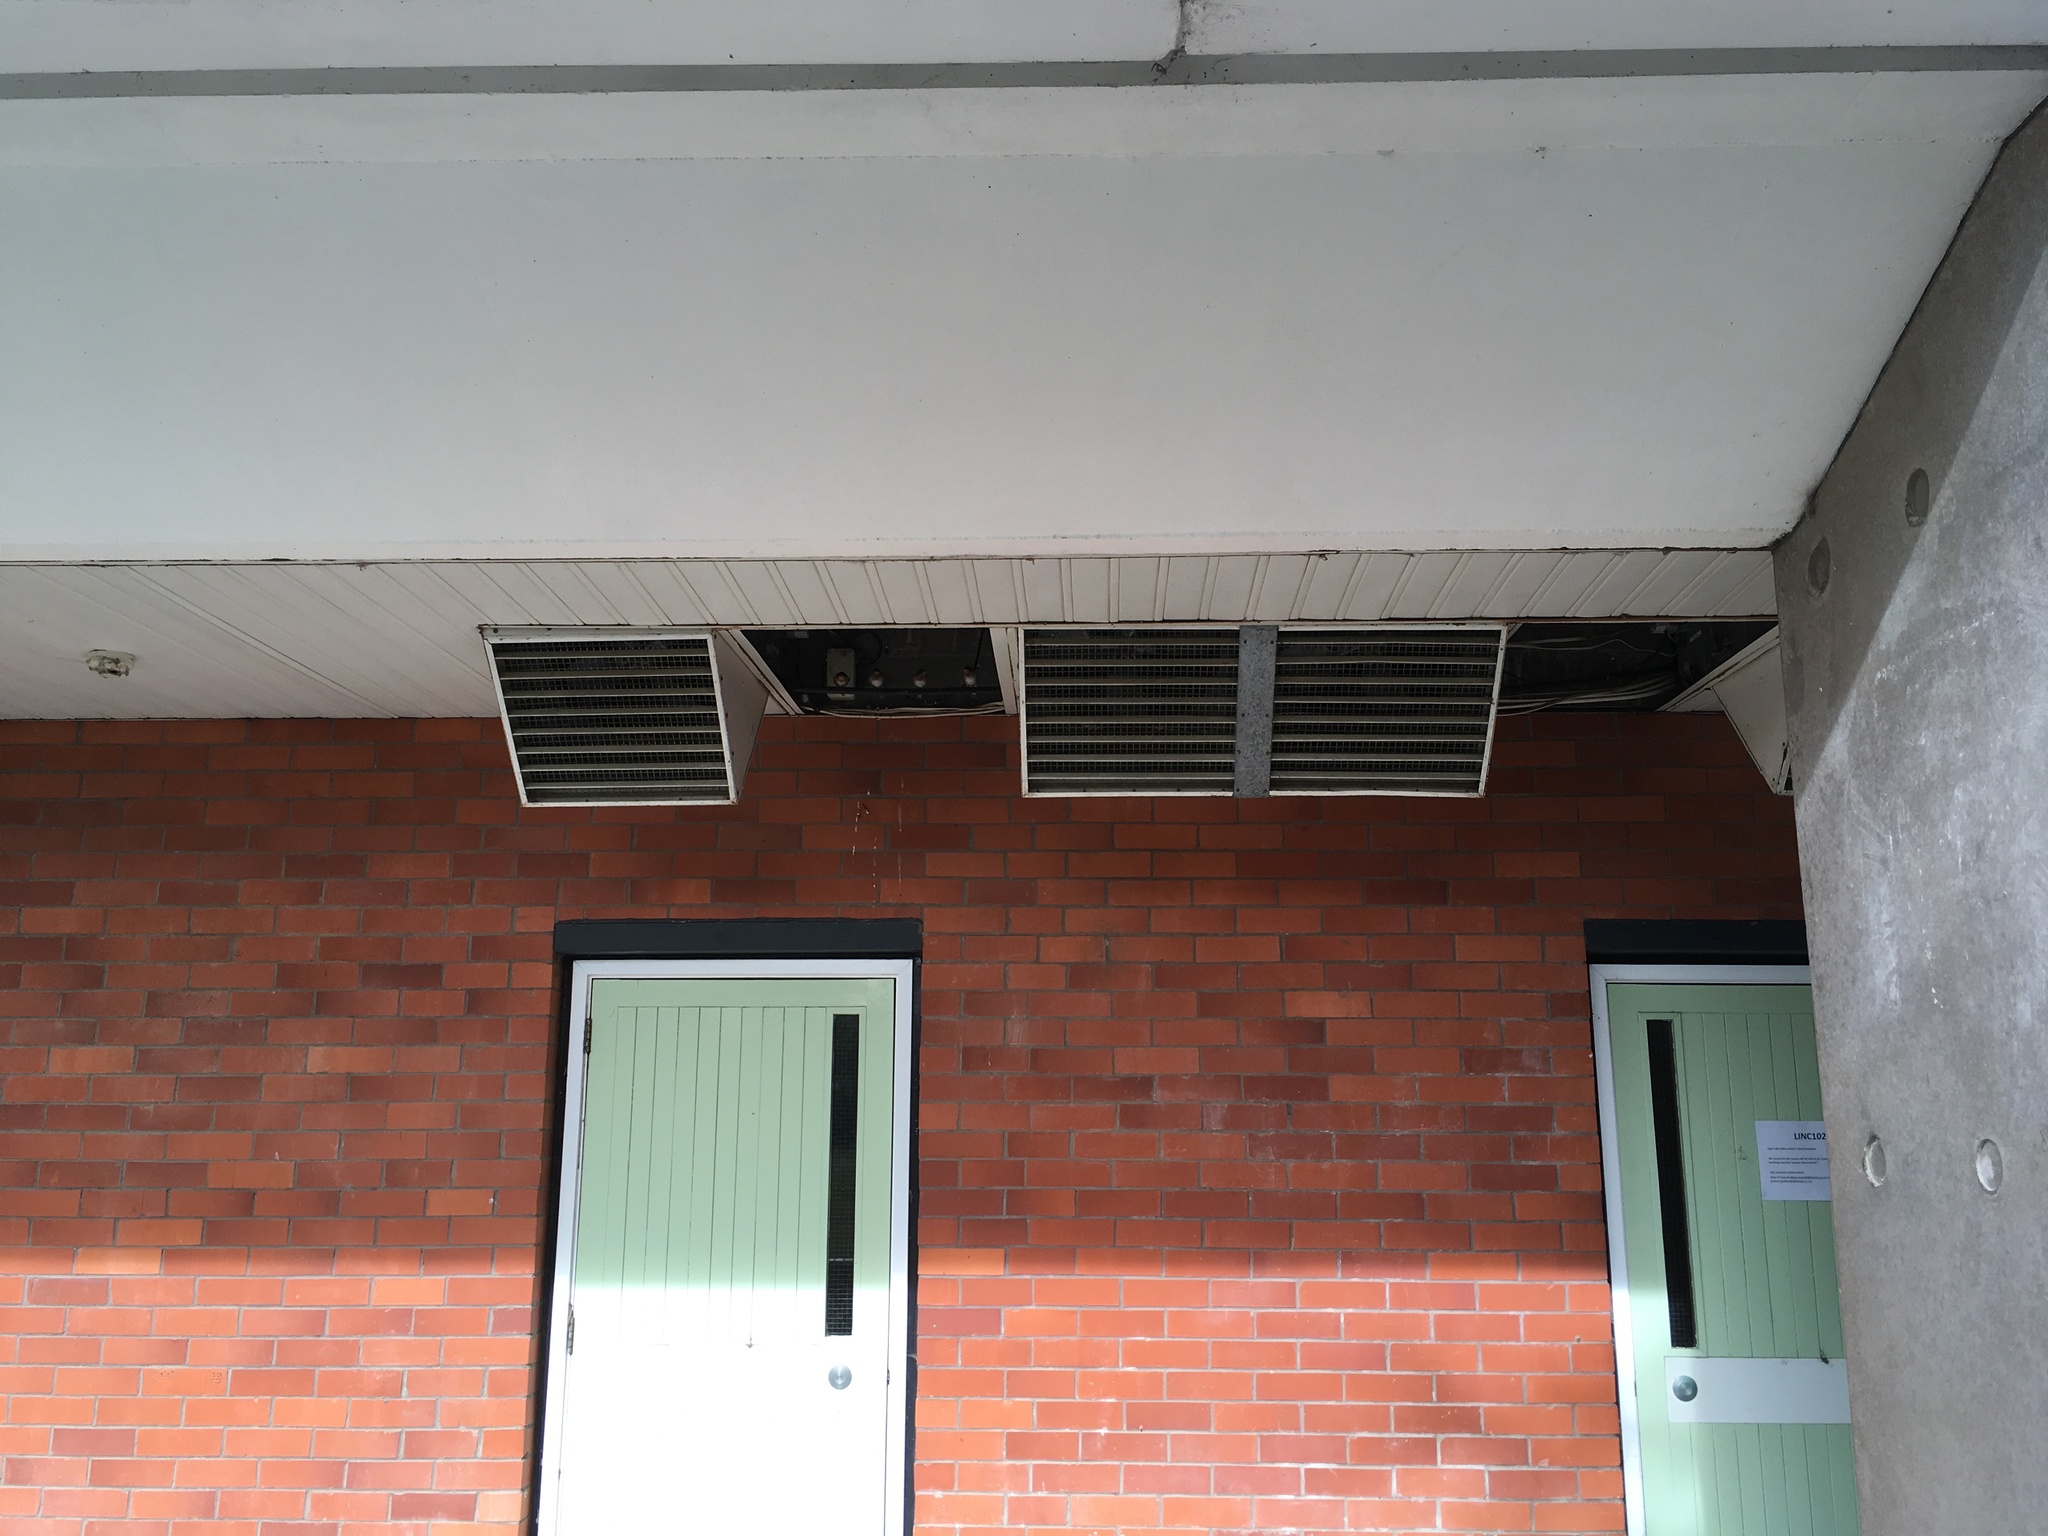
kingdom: Animalia
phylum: Chordata
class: Aves
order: Passeriformes
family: Hirundinidae
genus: Hirundo
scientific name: Hirundo neoxena
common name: Welcome swallow
